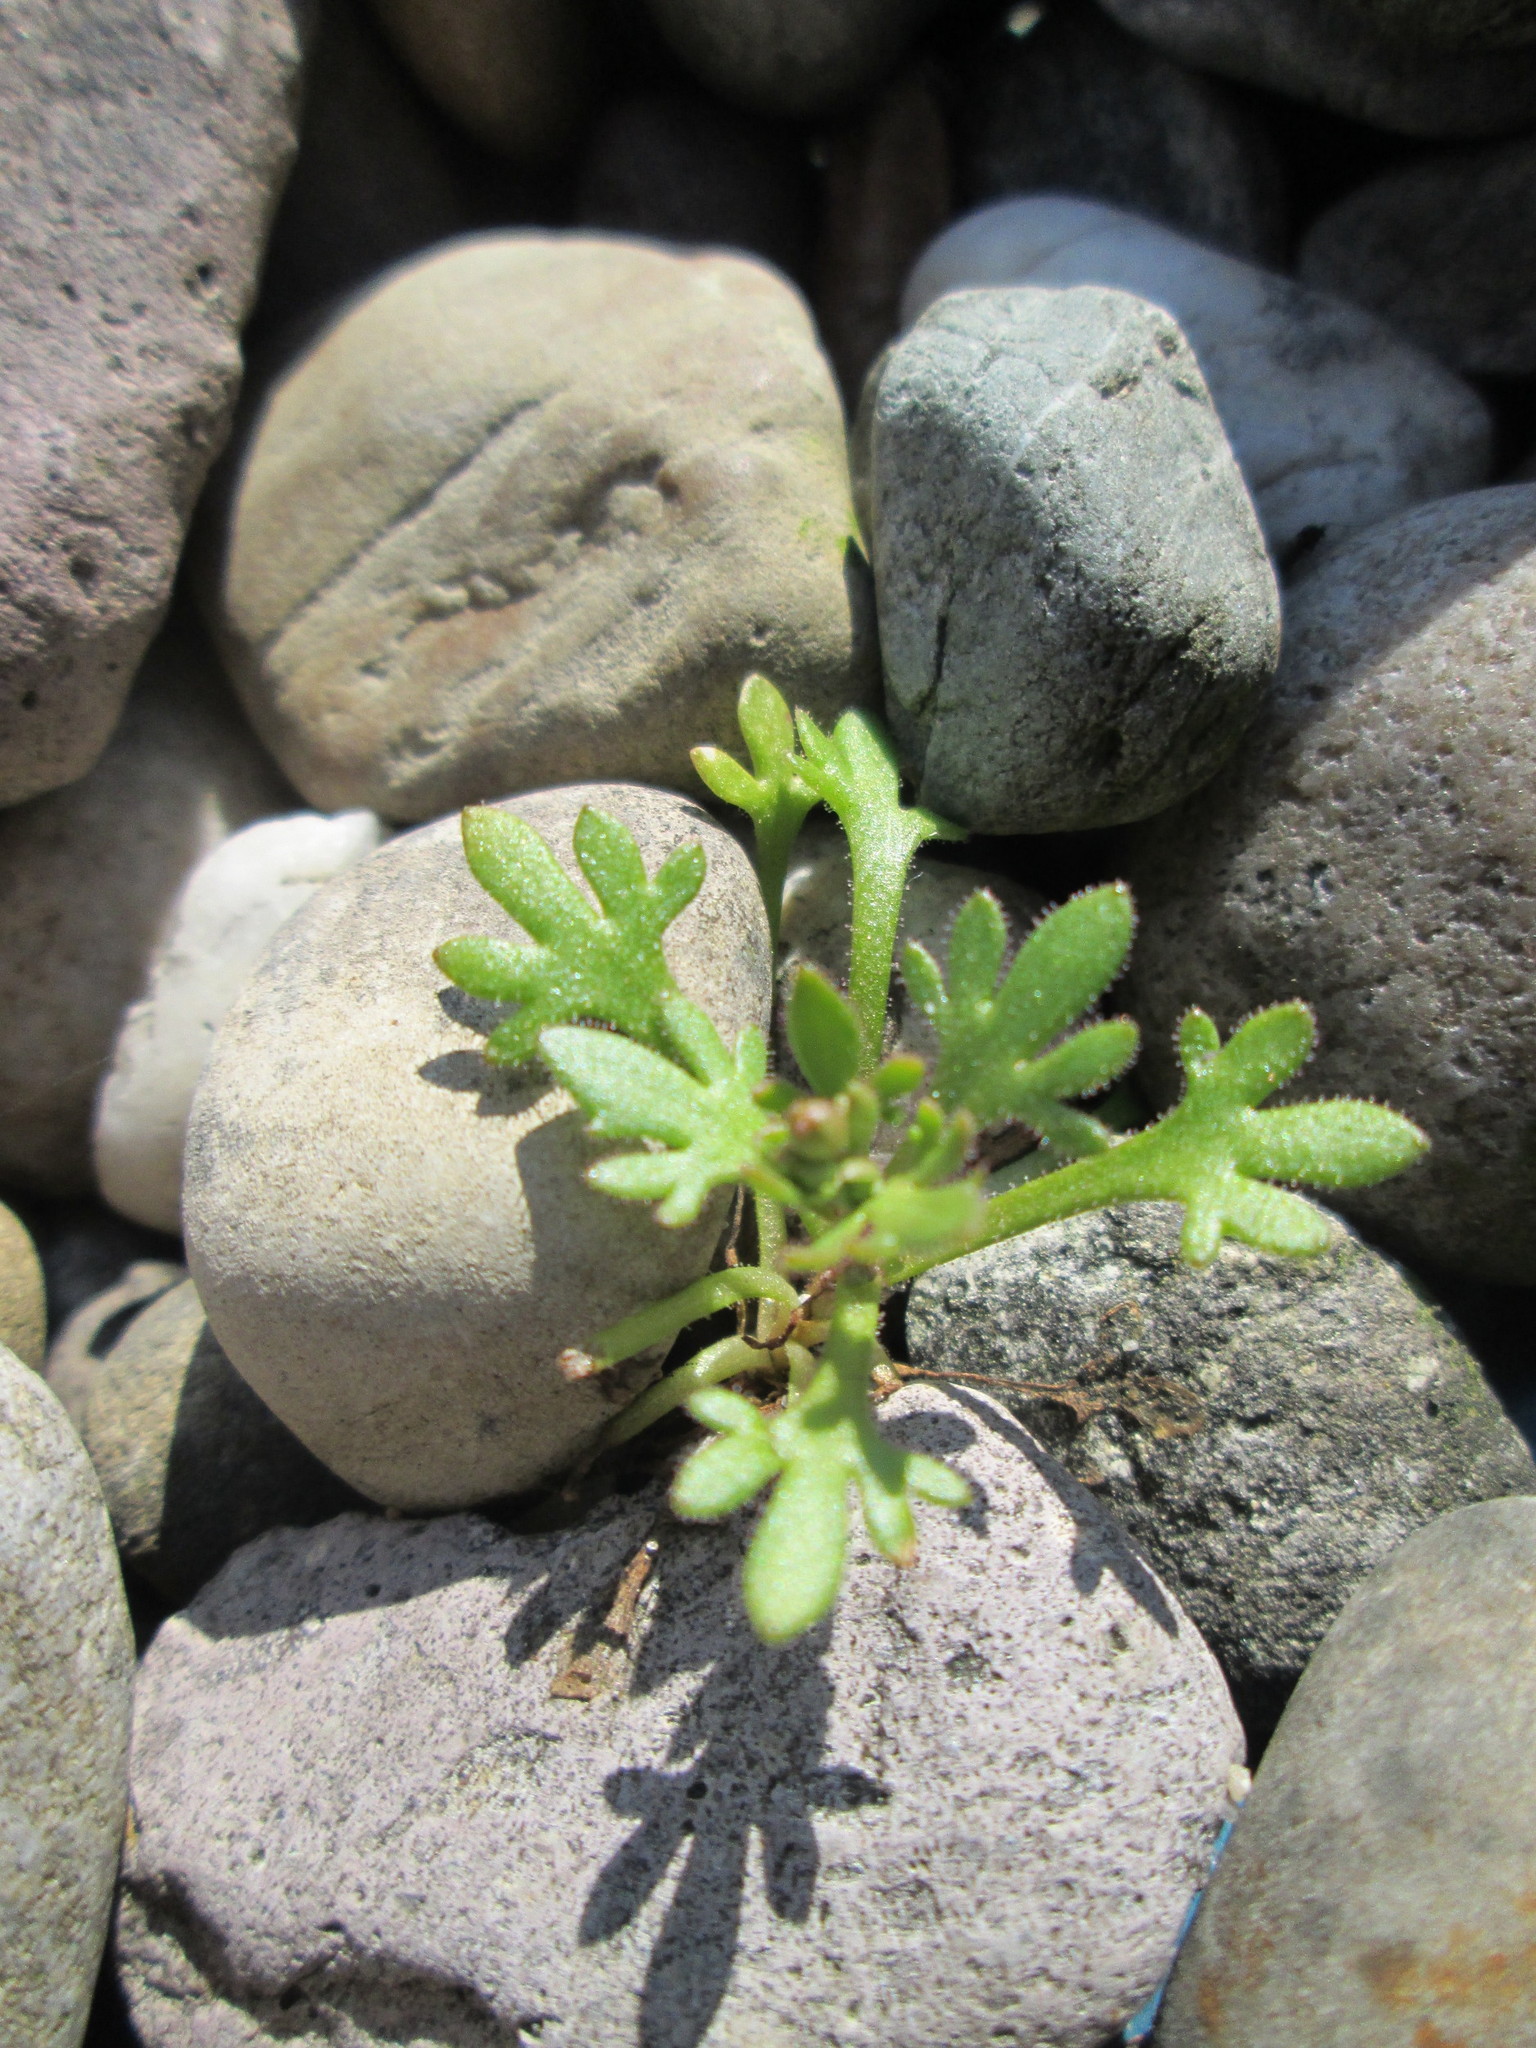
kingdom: Plantae
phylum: Tracheophyta
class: Magnoliopsida
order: Saxifragales
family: Saxifragaceae
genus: Saxifraga
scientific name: Saxifraga tridactylites
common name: Rue-leaved saxifrage
